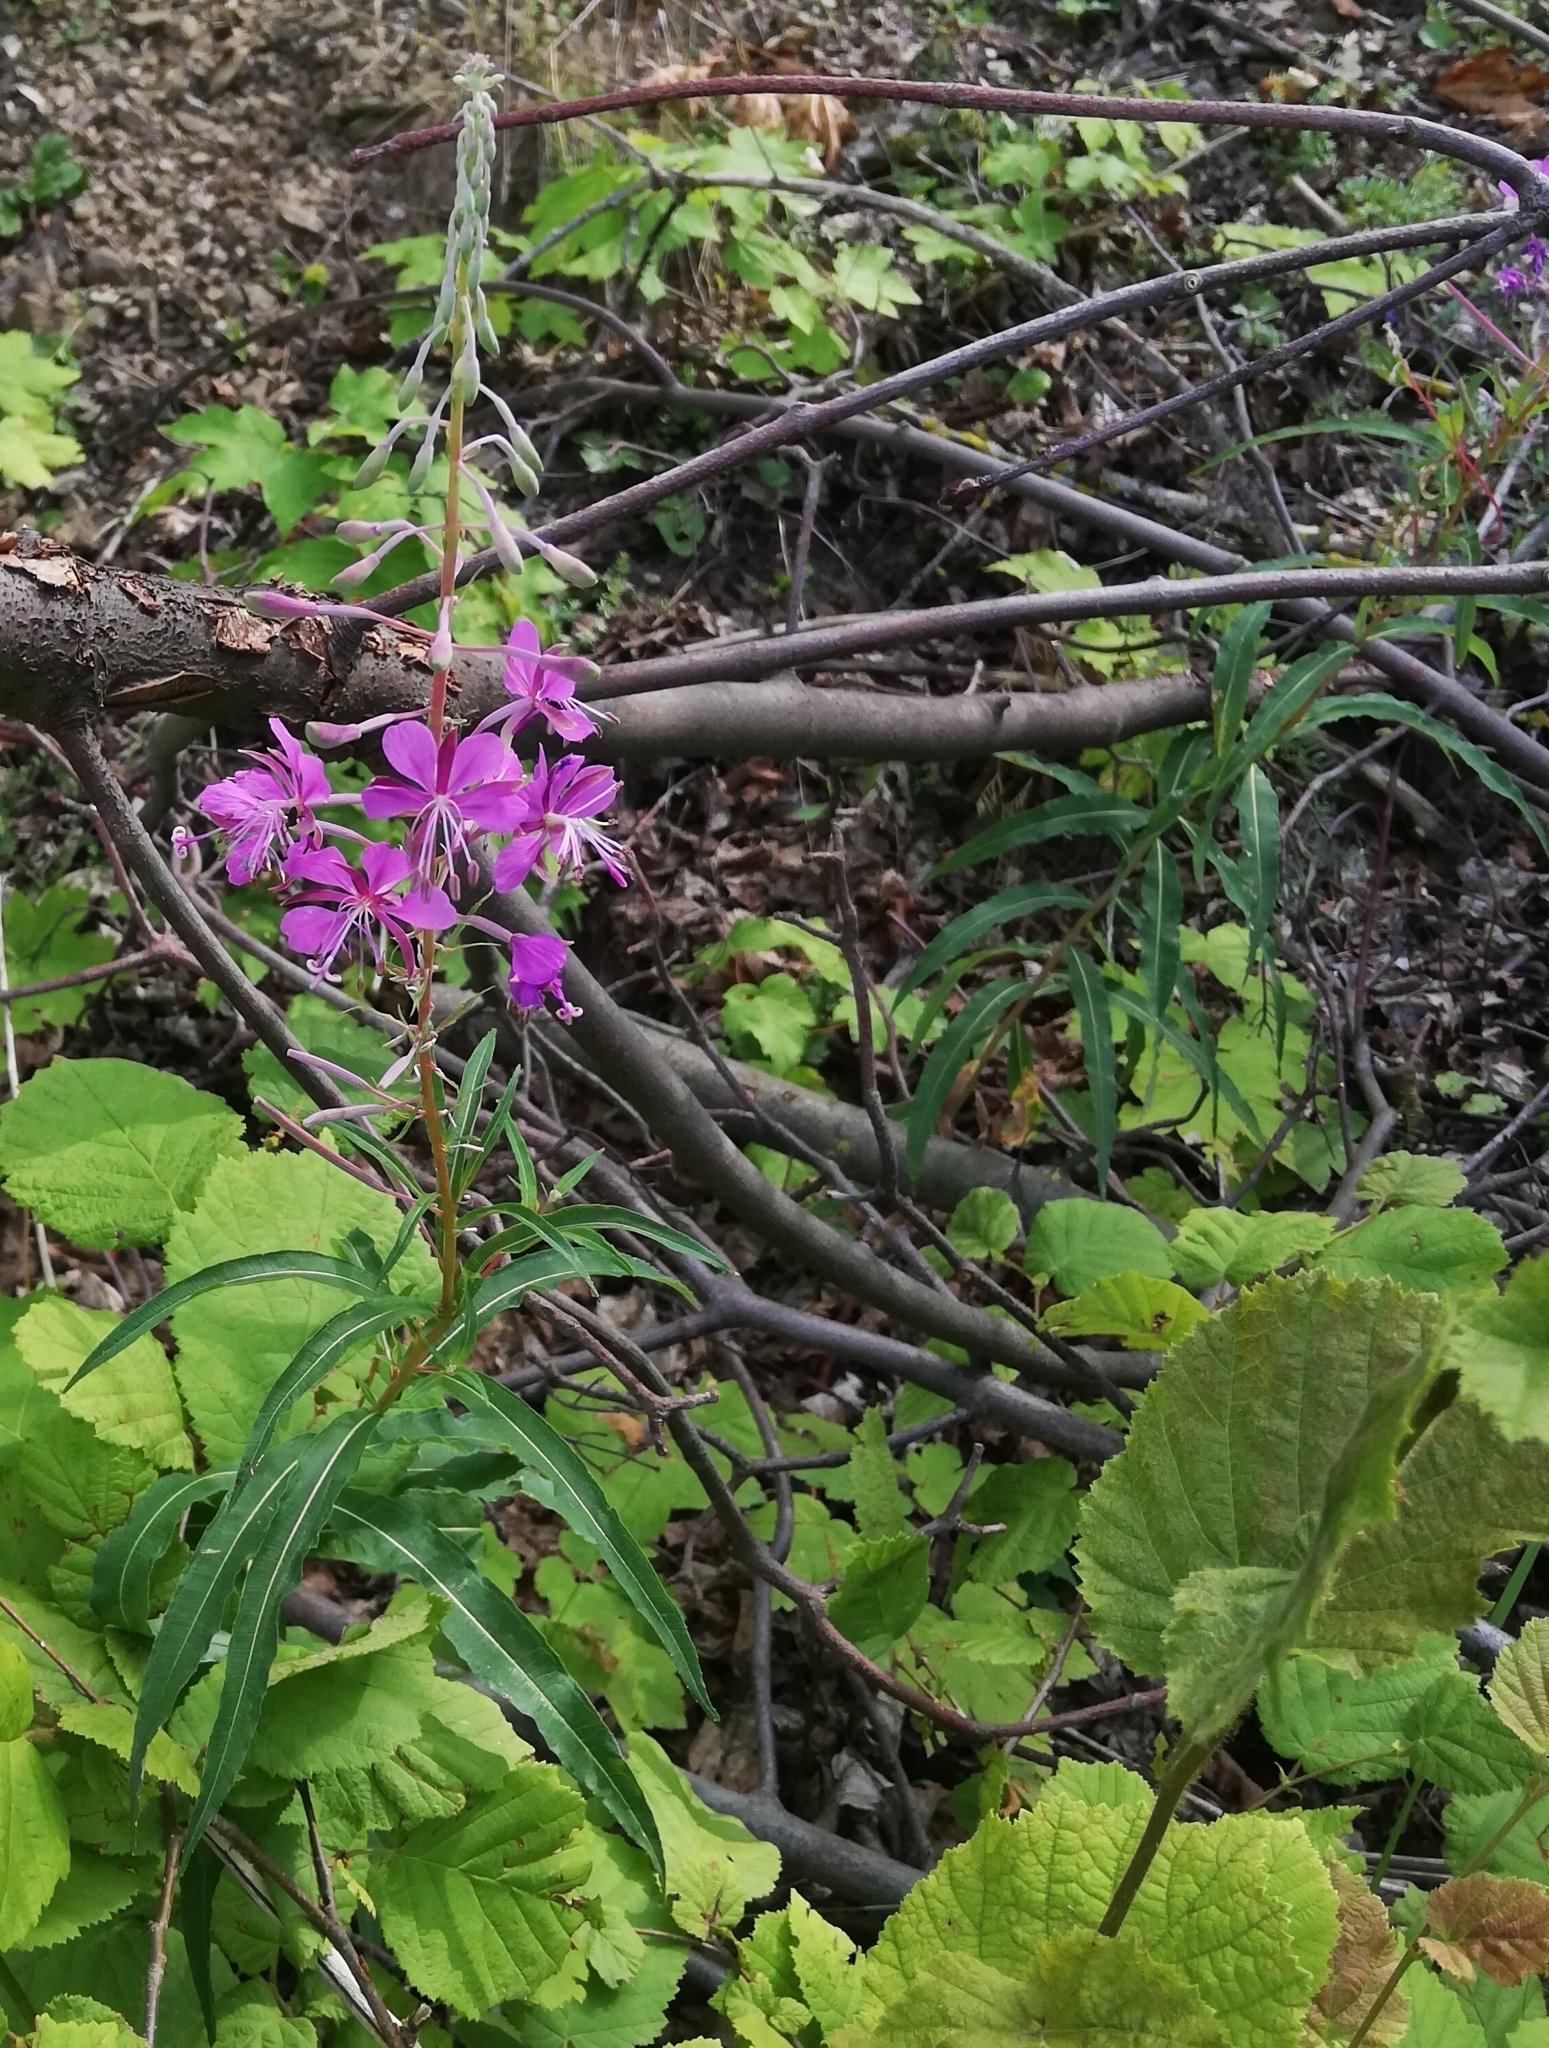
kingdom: Plantae
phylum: Tracheophyta
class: Magnoliopsida
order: Myrtales
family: Onagraceae
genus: Chamaenerion
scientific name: Chamaenerion angustifolium
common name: Fireweed
